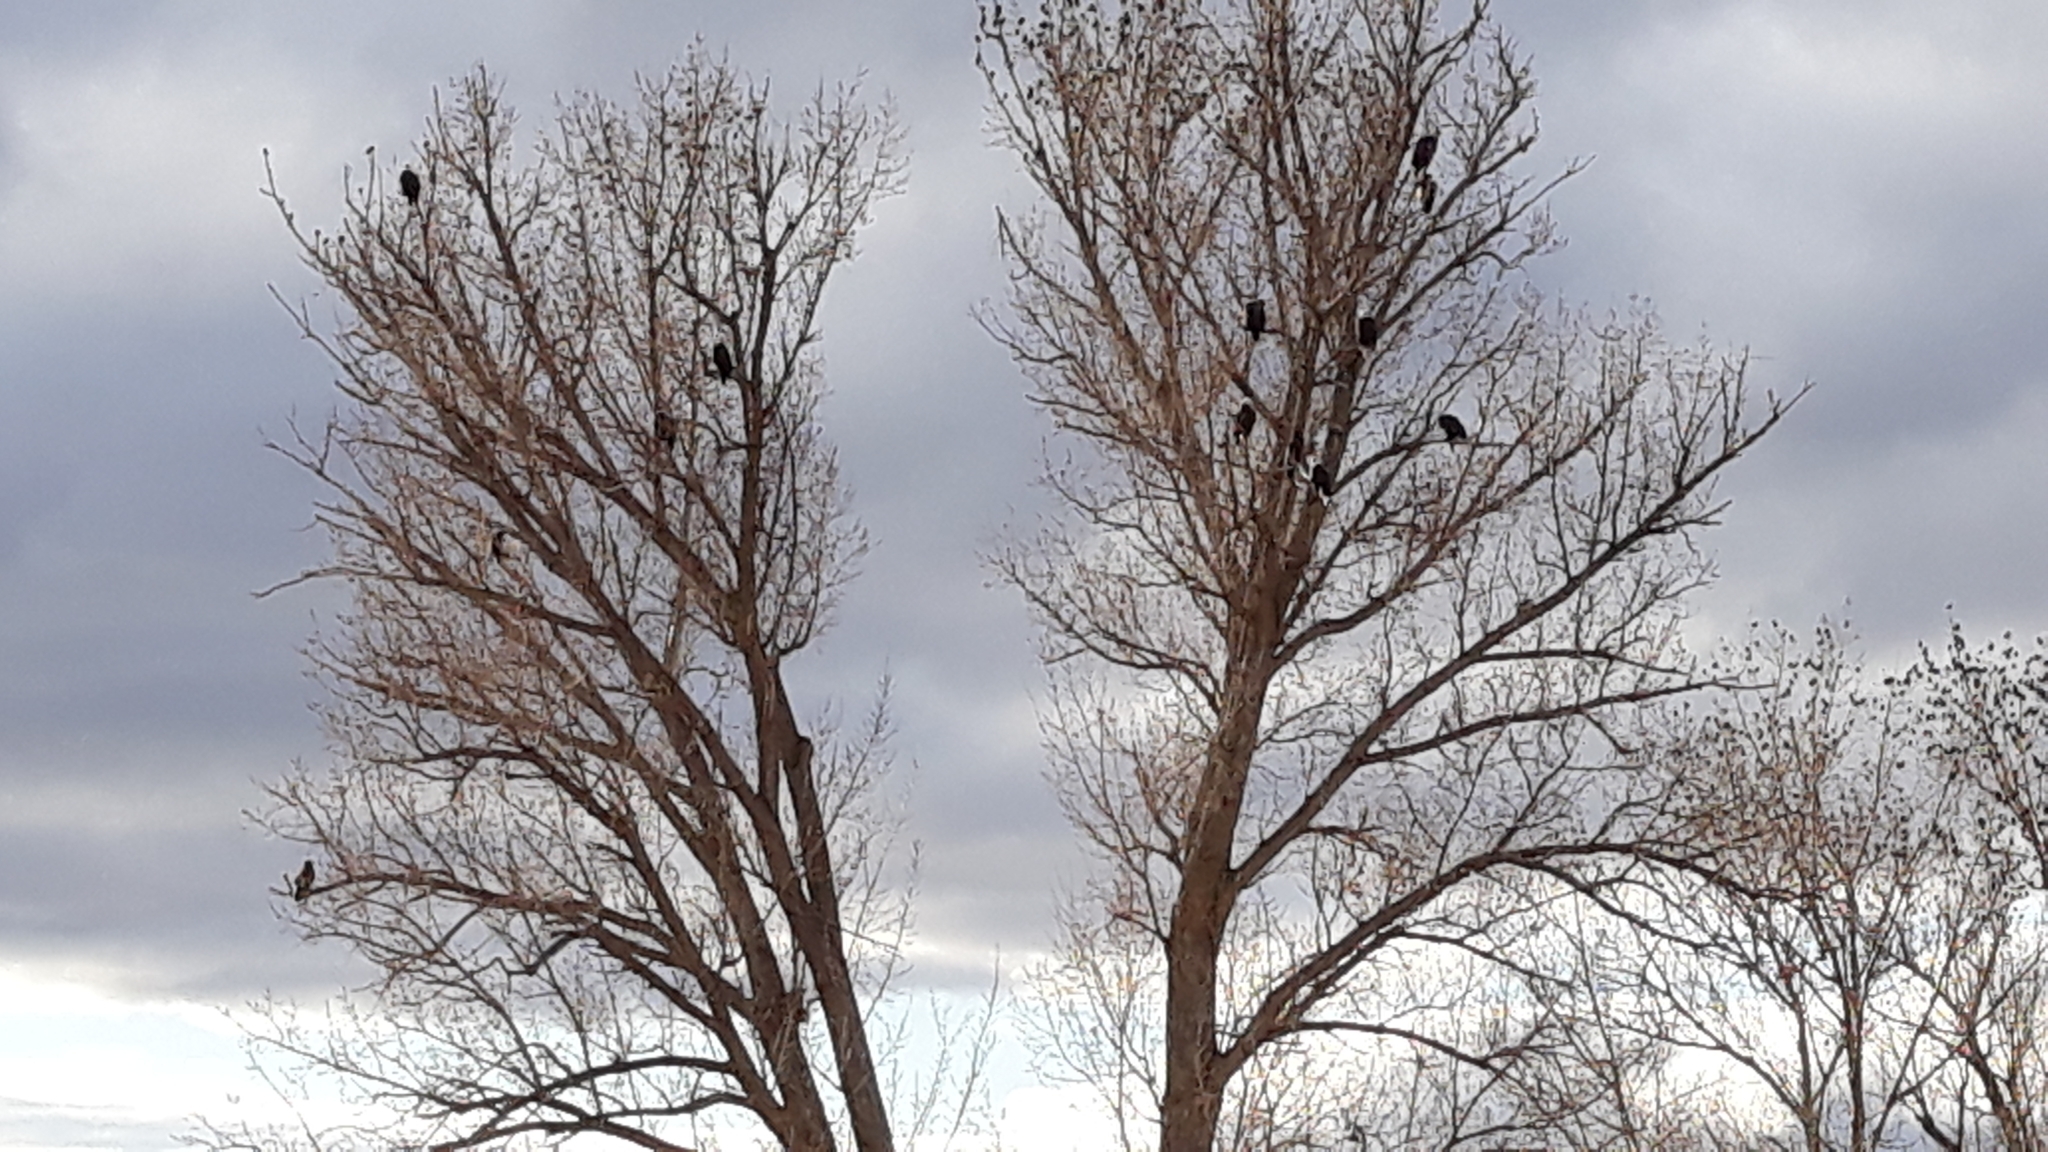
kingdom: Animalia
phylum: Chordata
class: Aves
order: Accipitriformes
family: Accipitridae
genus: Haliaeetus
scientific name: Haliaeetus leucocephalus
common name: Bald eagle
